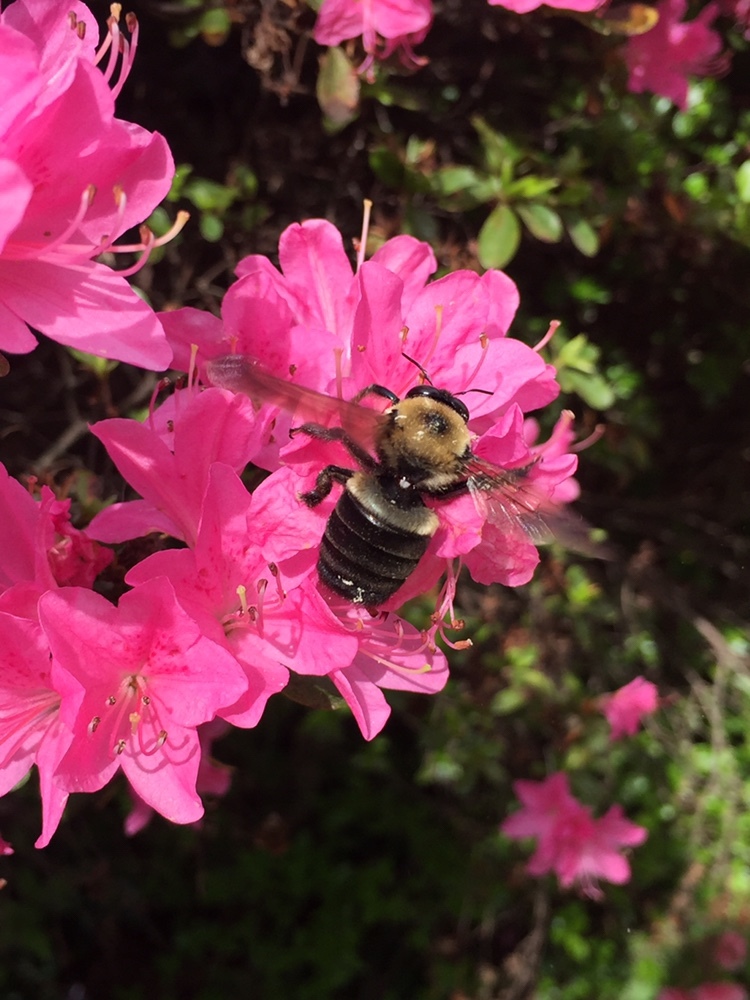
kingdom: Animalia
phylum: Arthropoda
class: Insecta
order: Hymenoptera
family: Apidae
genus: Xylocopa
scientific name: Xylocopa virginica
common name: Carpenter bee
